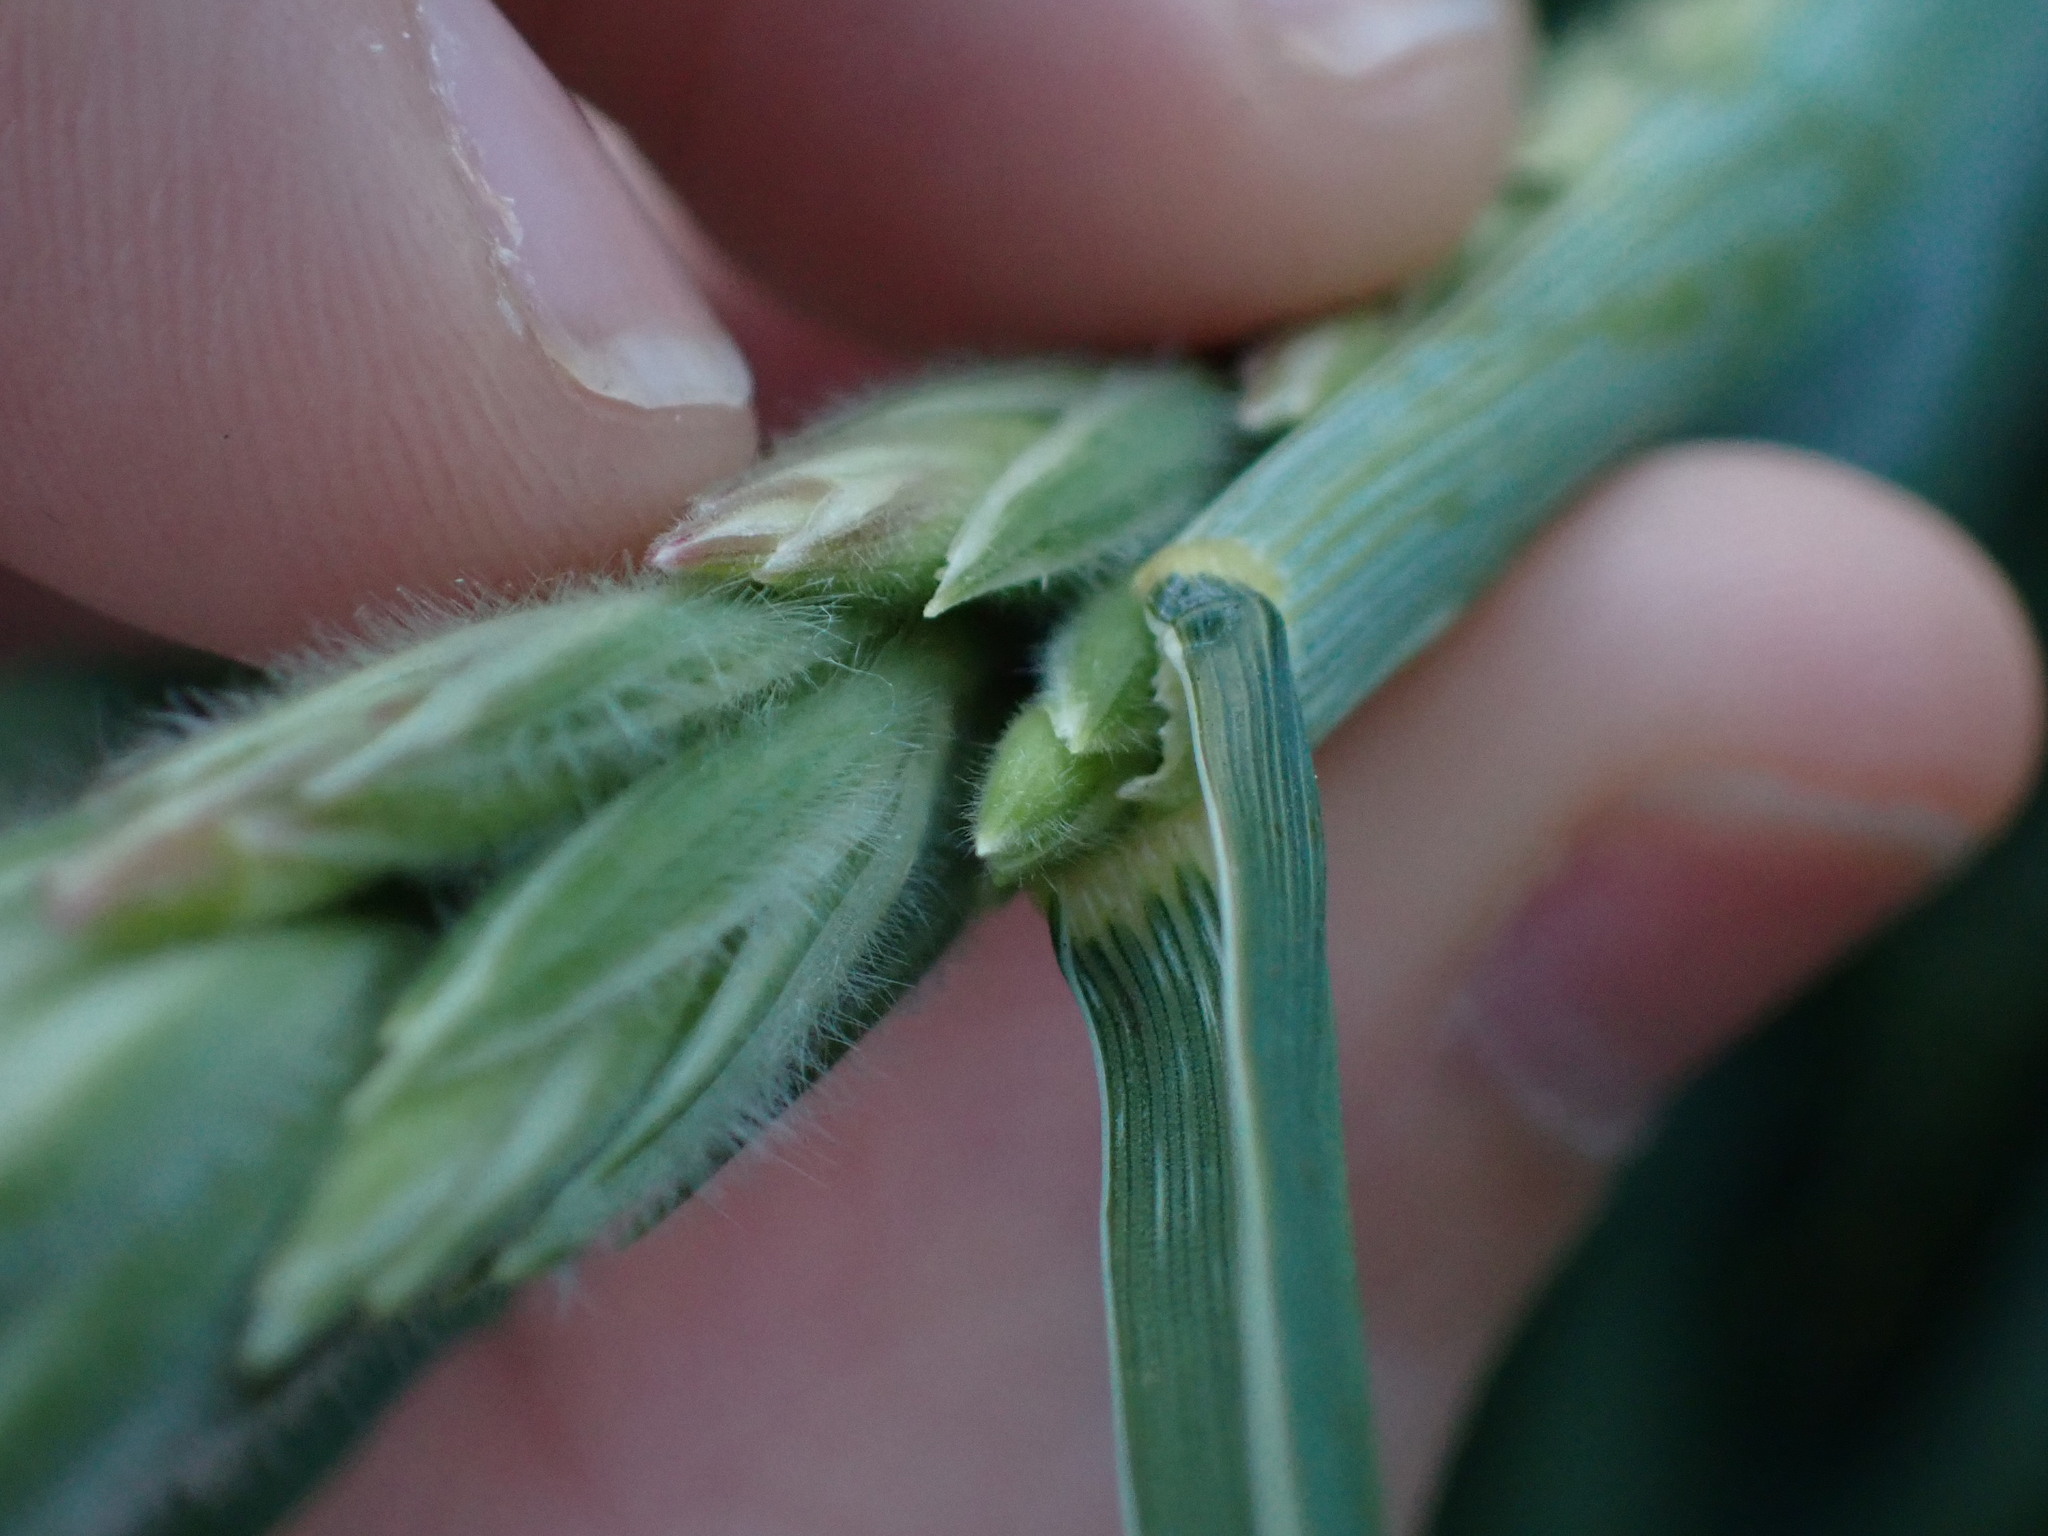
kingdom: Plantae
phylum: Tracheophyta
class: Liliopsida
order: Poales
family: Poaceae
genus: Leymus
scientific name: Leymus mollis
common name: American dune grass
